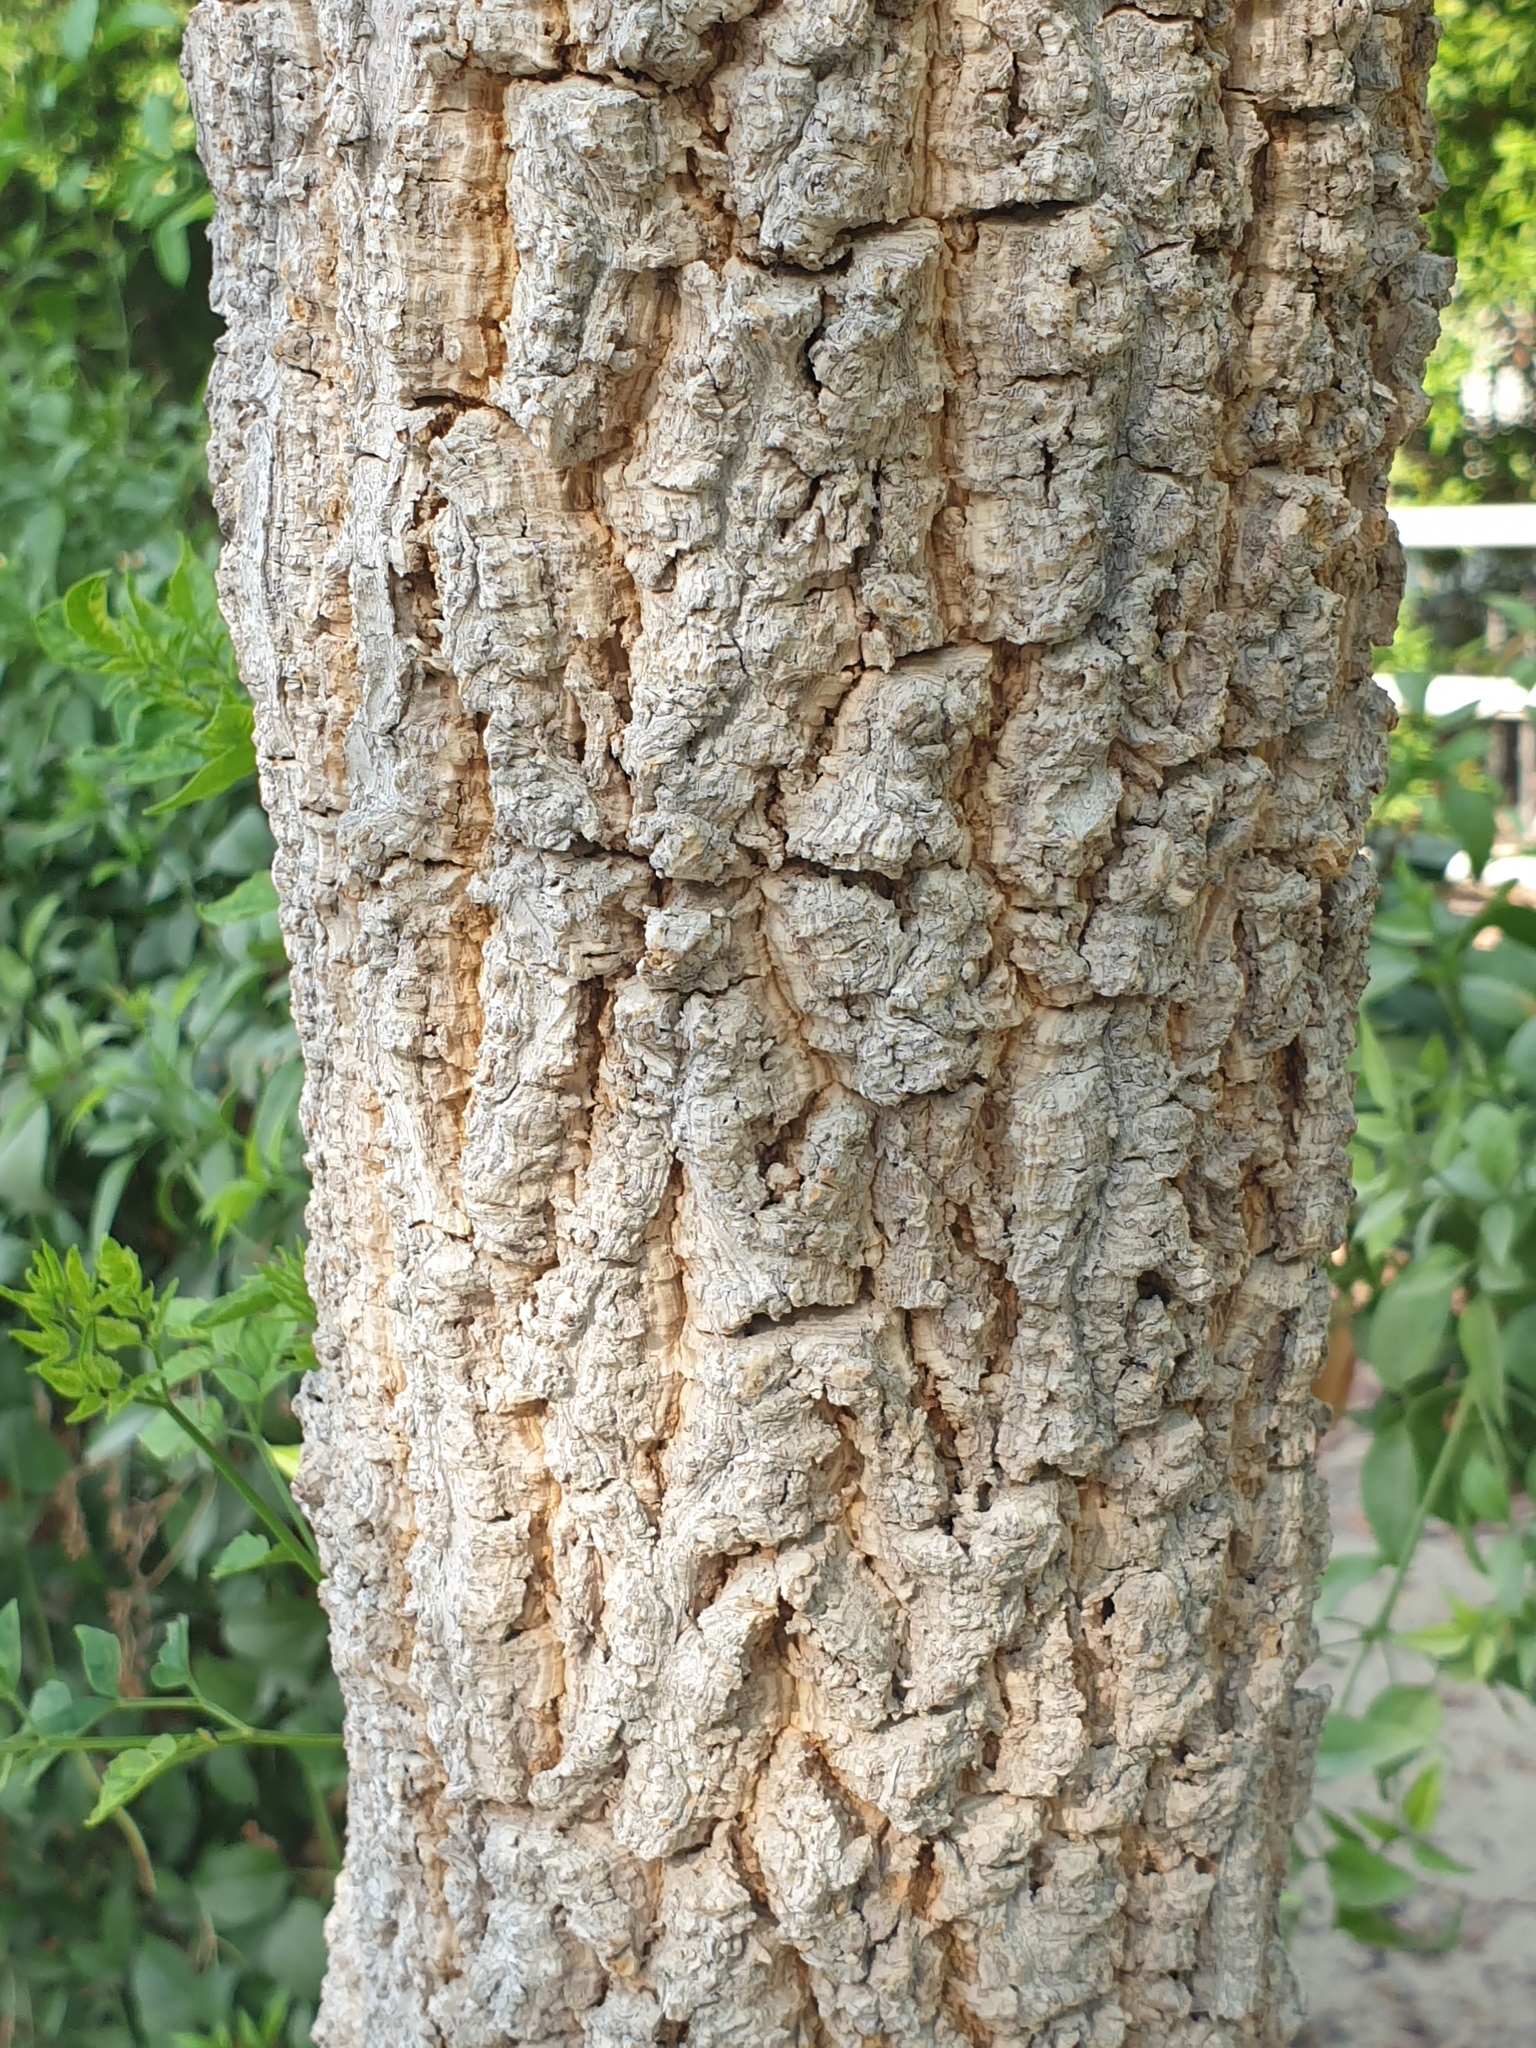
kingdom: Plantae
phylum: Tracheophyta
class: Magnoliopsida
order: Brassicales
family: Moringaceae
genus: Moringa
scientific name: Moringa oleifera
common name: Horseradish-tree
